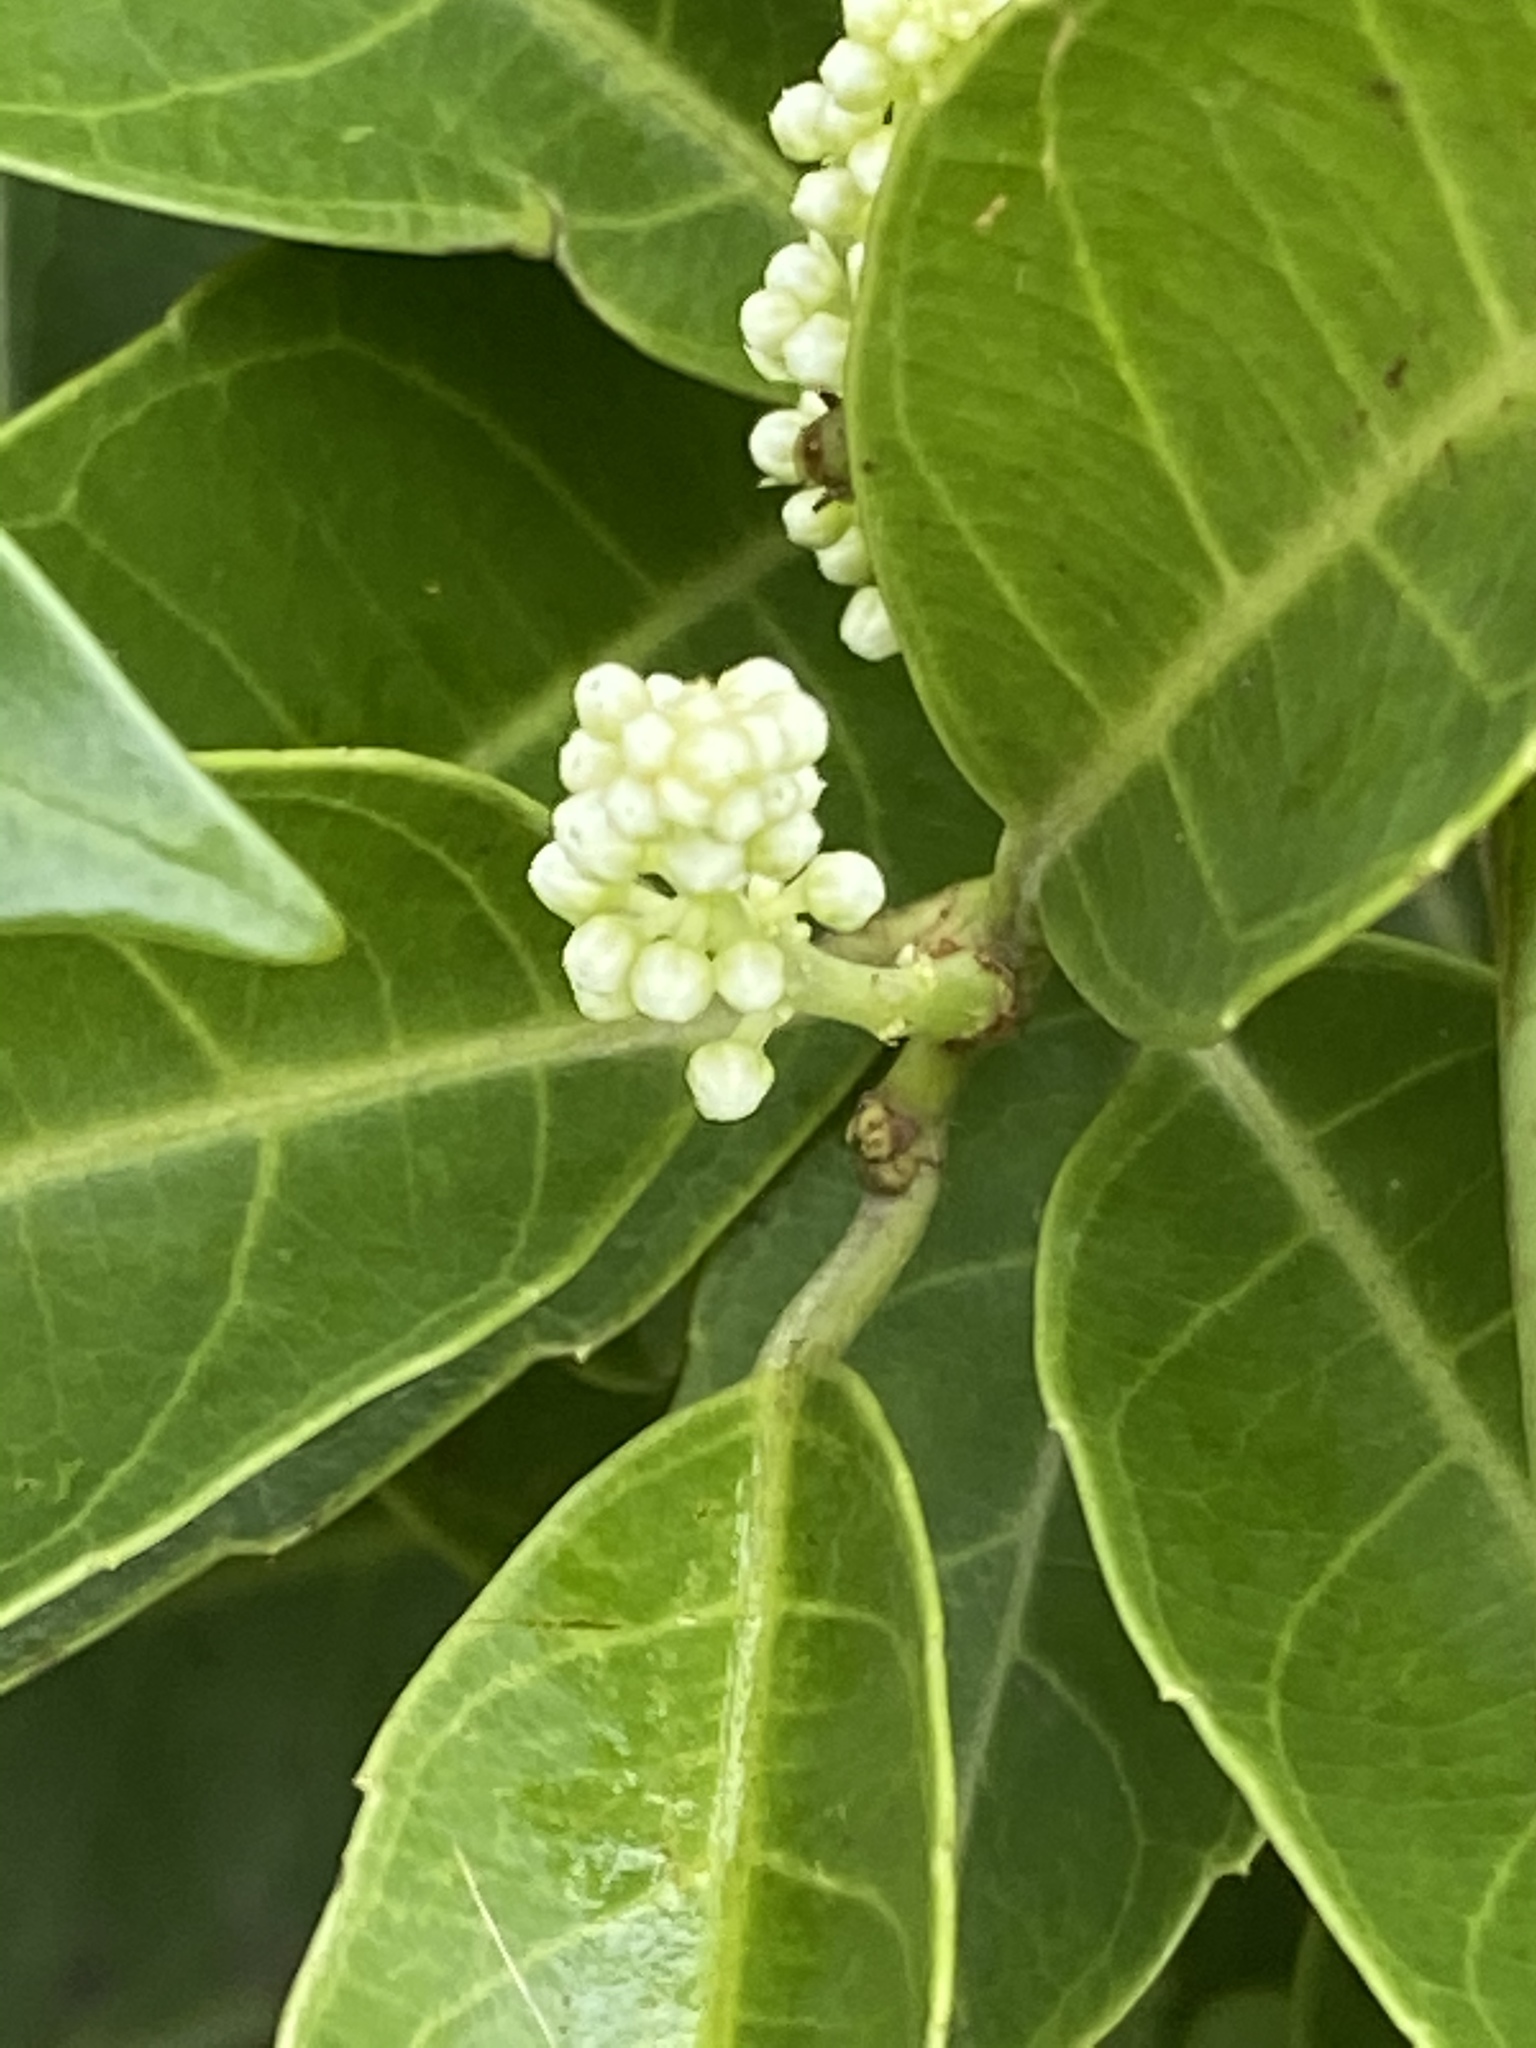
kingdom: Plantae
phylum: Tracheophyta
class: Magnoliopsida
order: Saxifragales
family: Iteaceae
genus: Itea
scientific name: Itea oldhamii
